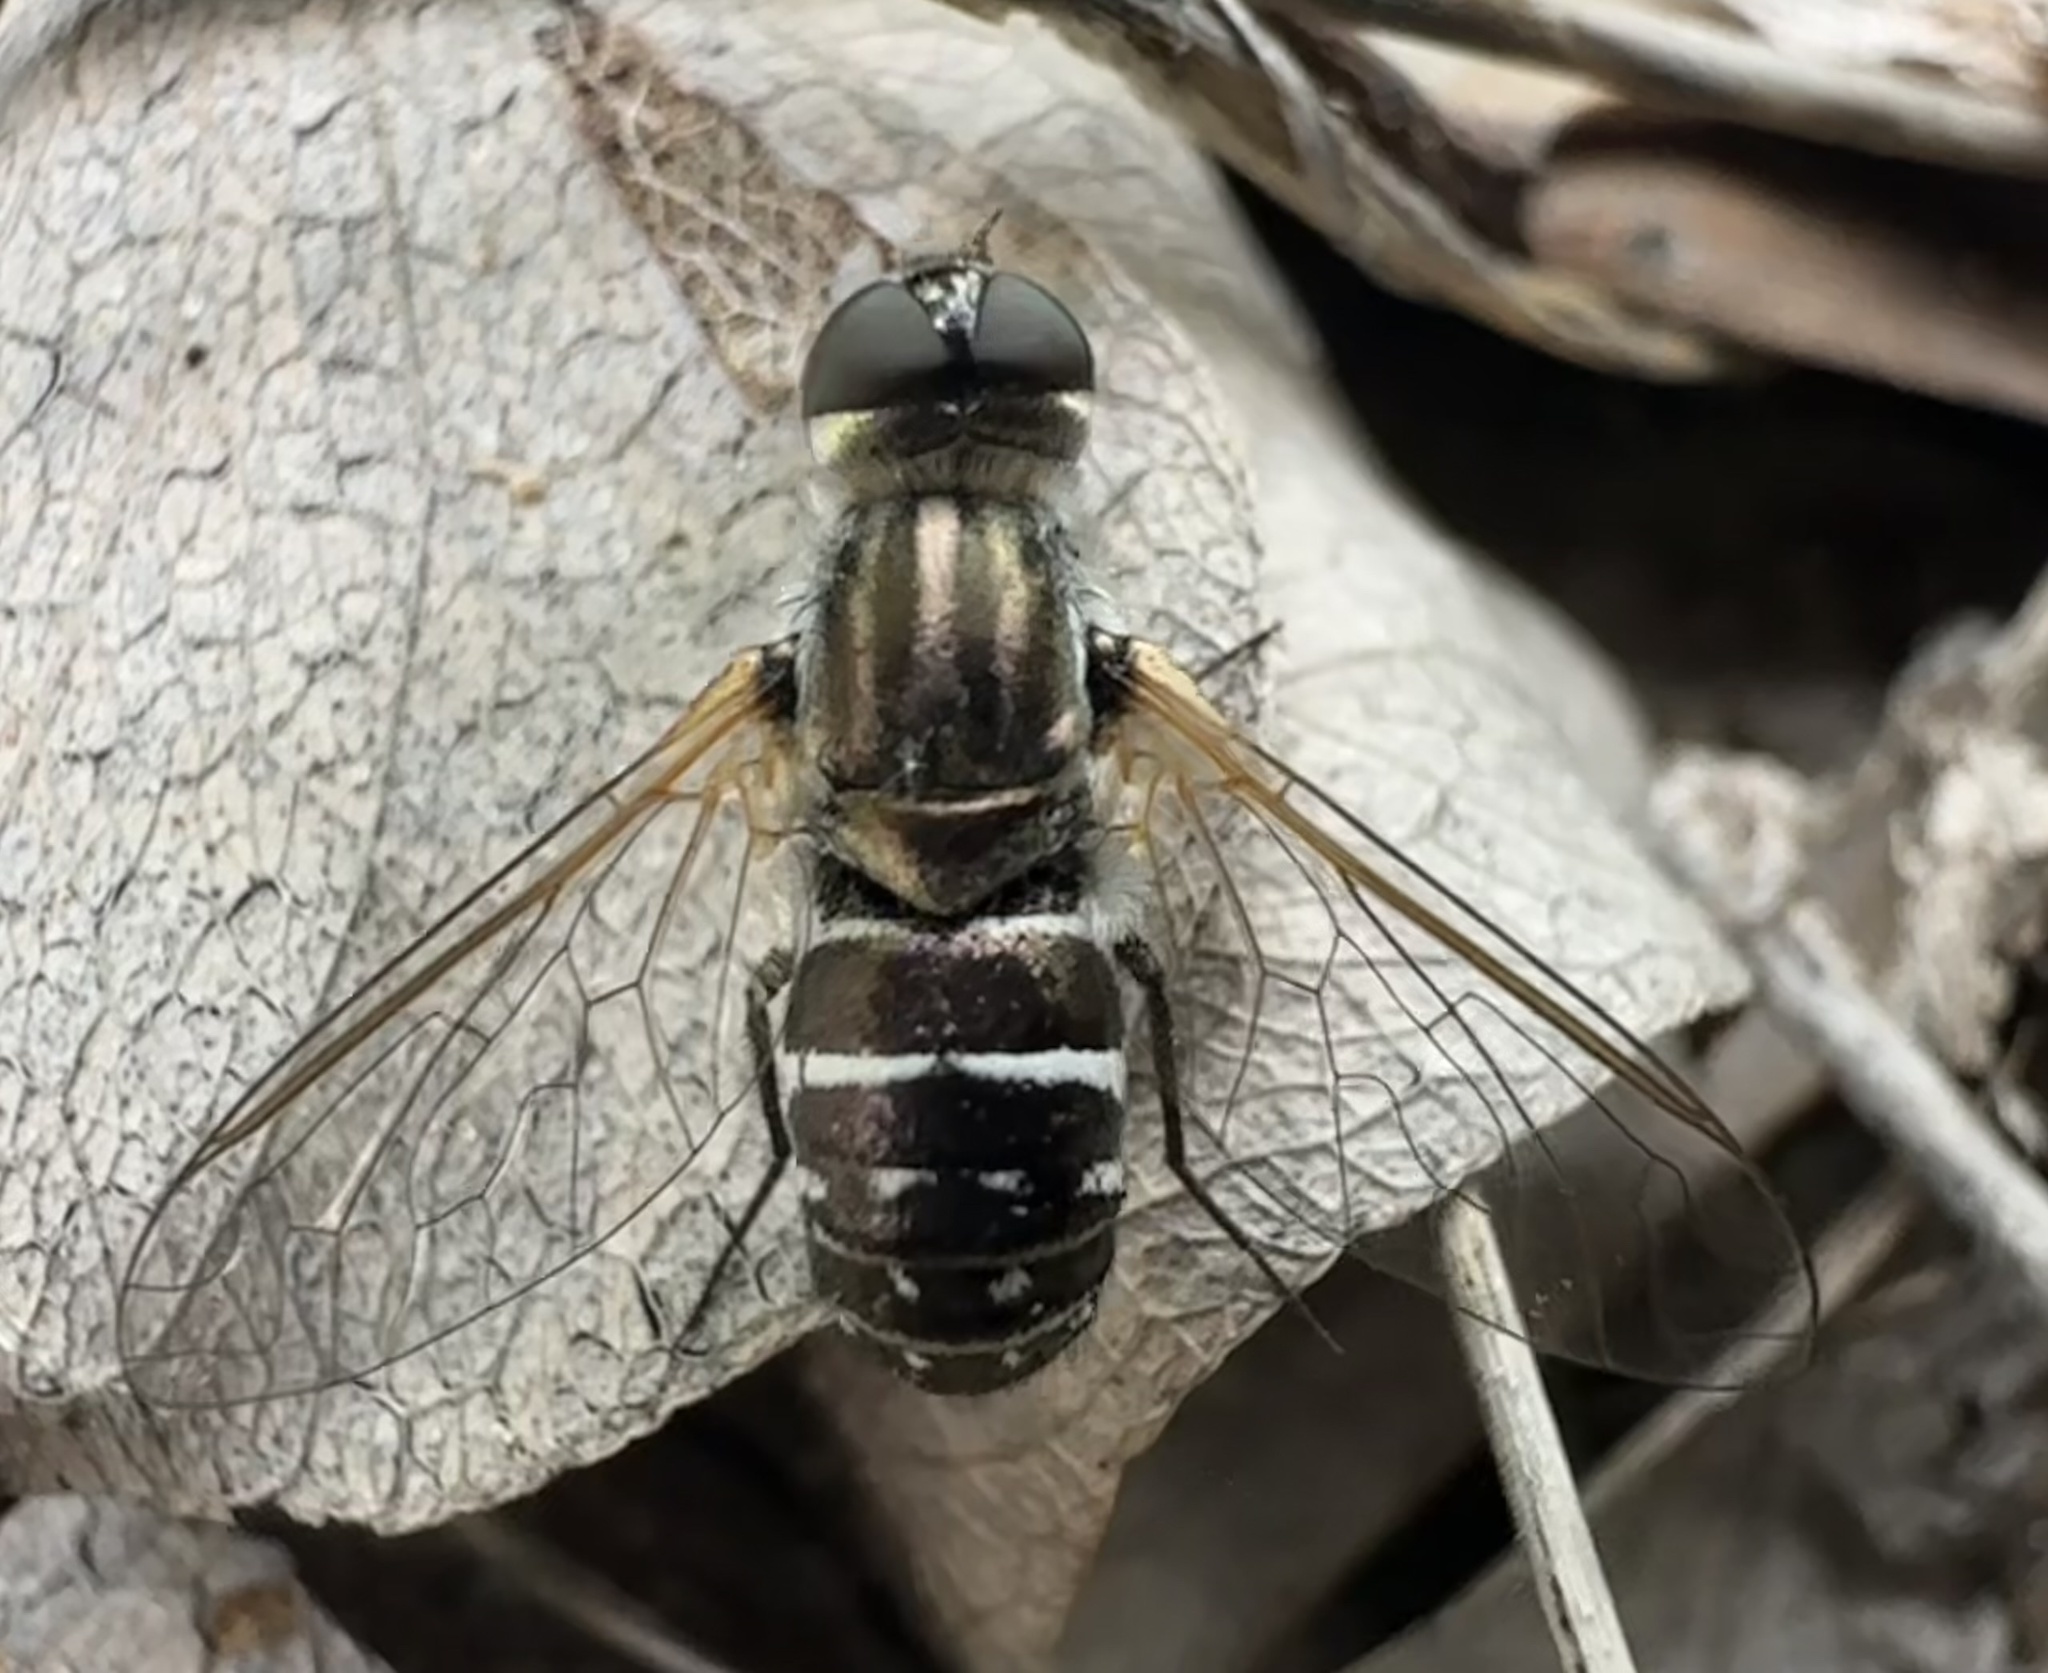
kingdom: Animalia
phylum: Arthropoda
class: Insecta
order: Diptera
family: Bombyliidae
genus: Micomitra
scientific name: Micomitra parvicellula
